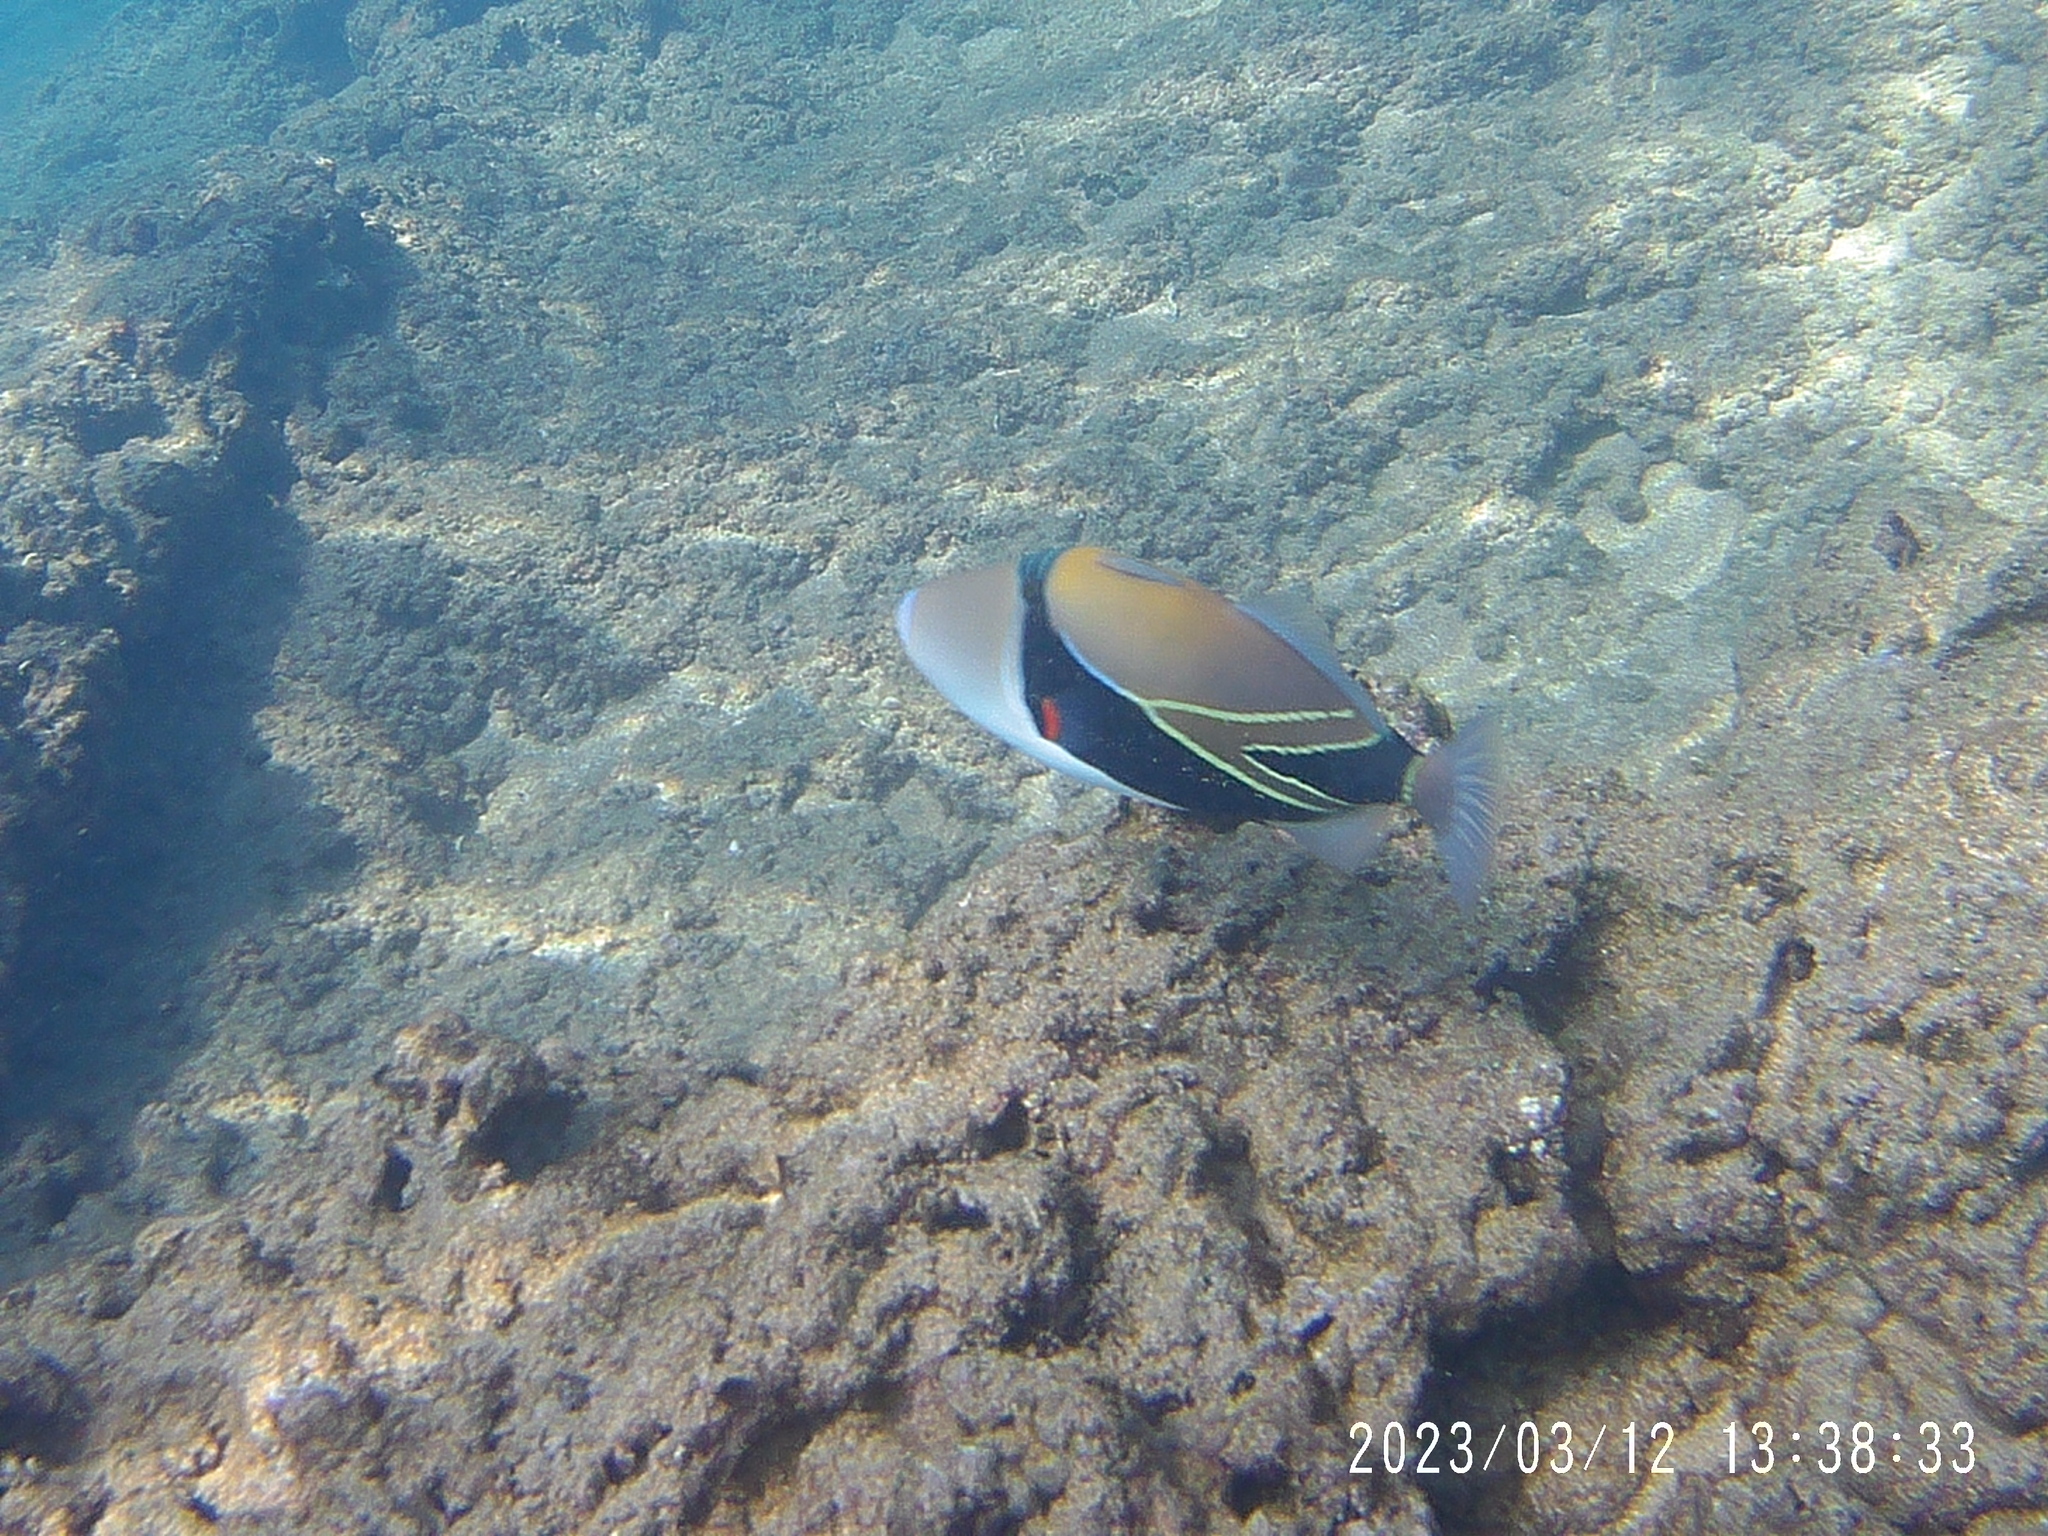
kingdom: Animalia
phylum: Chordata
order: Tetraodontiformes
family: Balistidae
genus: Rhinecanthus
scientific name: Rhinecanthus rectangulus
